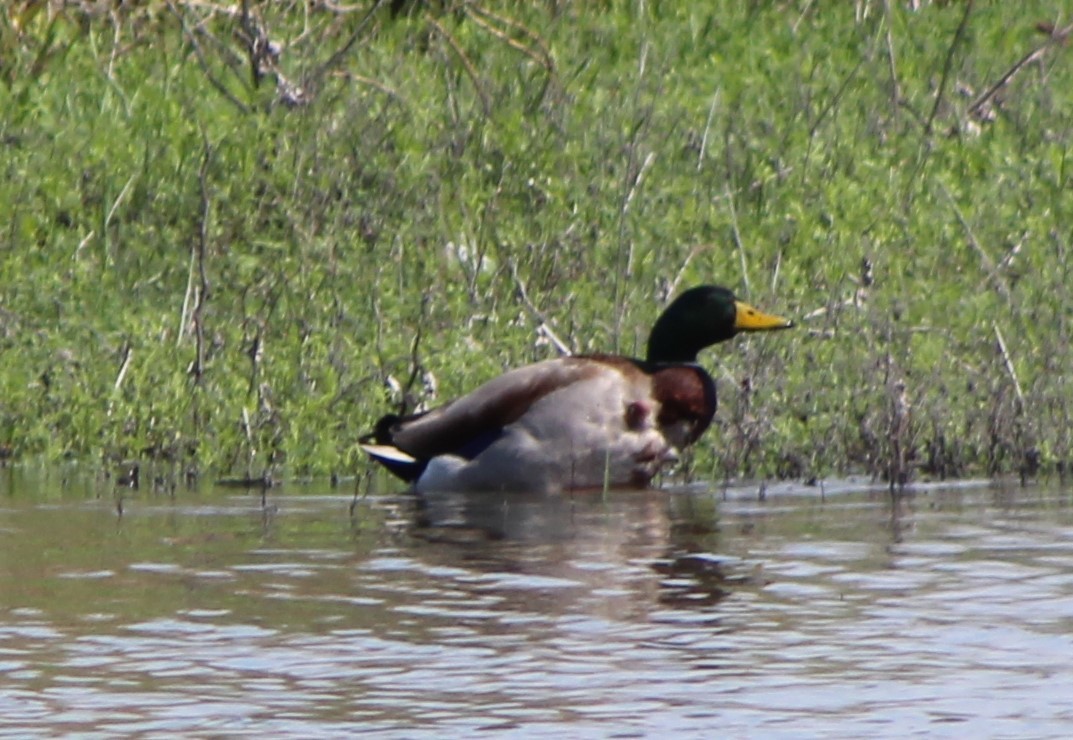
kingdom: Animalia
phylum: Chordata
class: Aves
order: Anseriformes
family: Anatidae
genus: Anas
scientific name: Anas platyrhynchos
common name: Mallard
